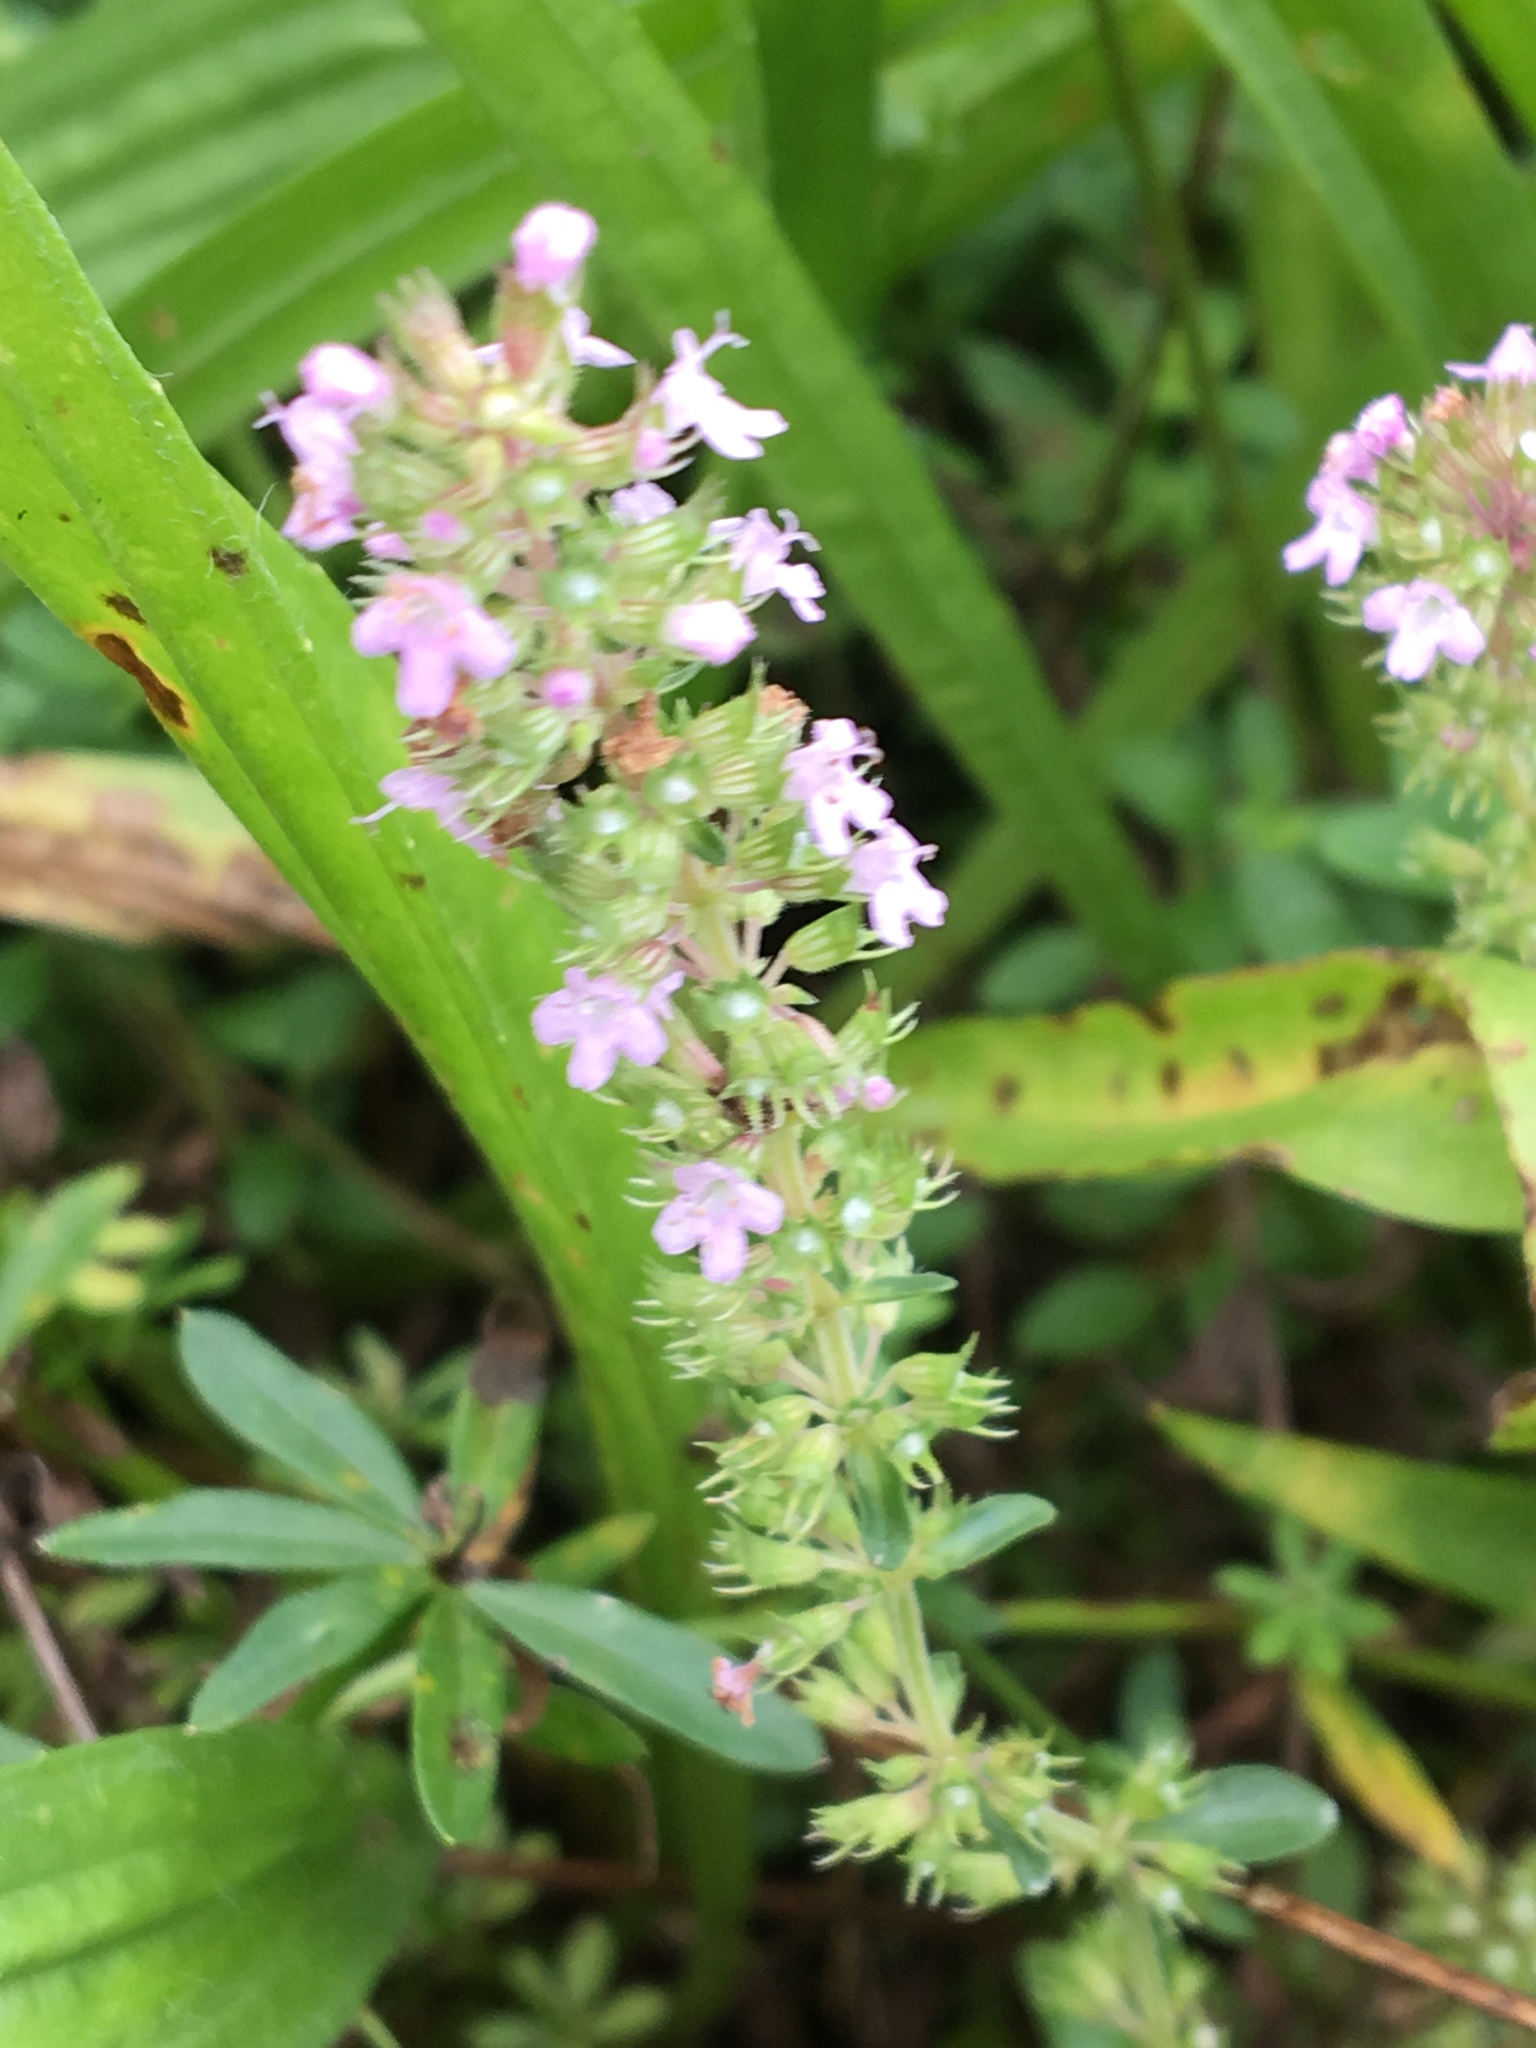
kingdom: Plantae
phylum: Tracheophyta
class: Magnoliopsida
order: Lamiales
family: Lamiaceae
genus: Thymus
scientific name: Thymus pulegioides
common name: Large thyme
